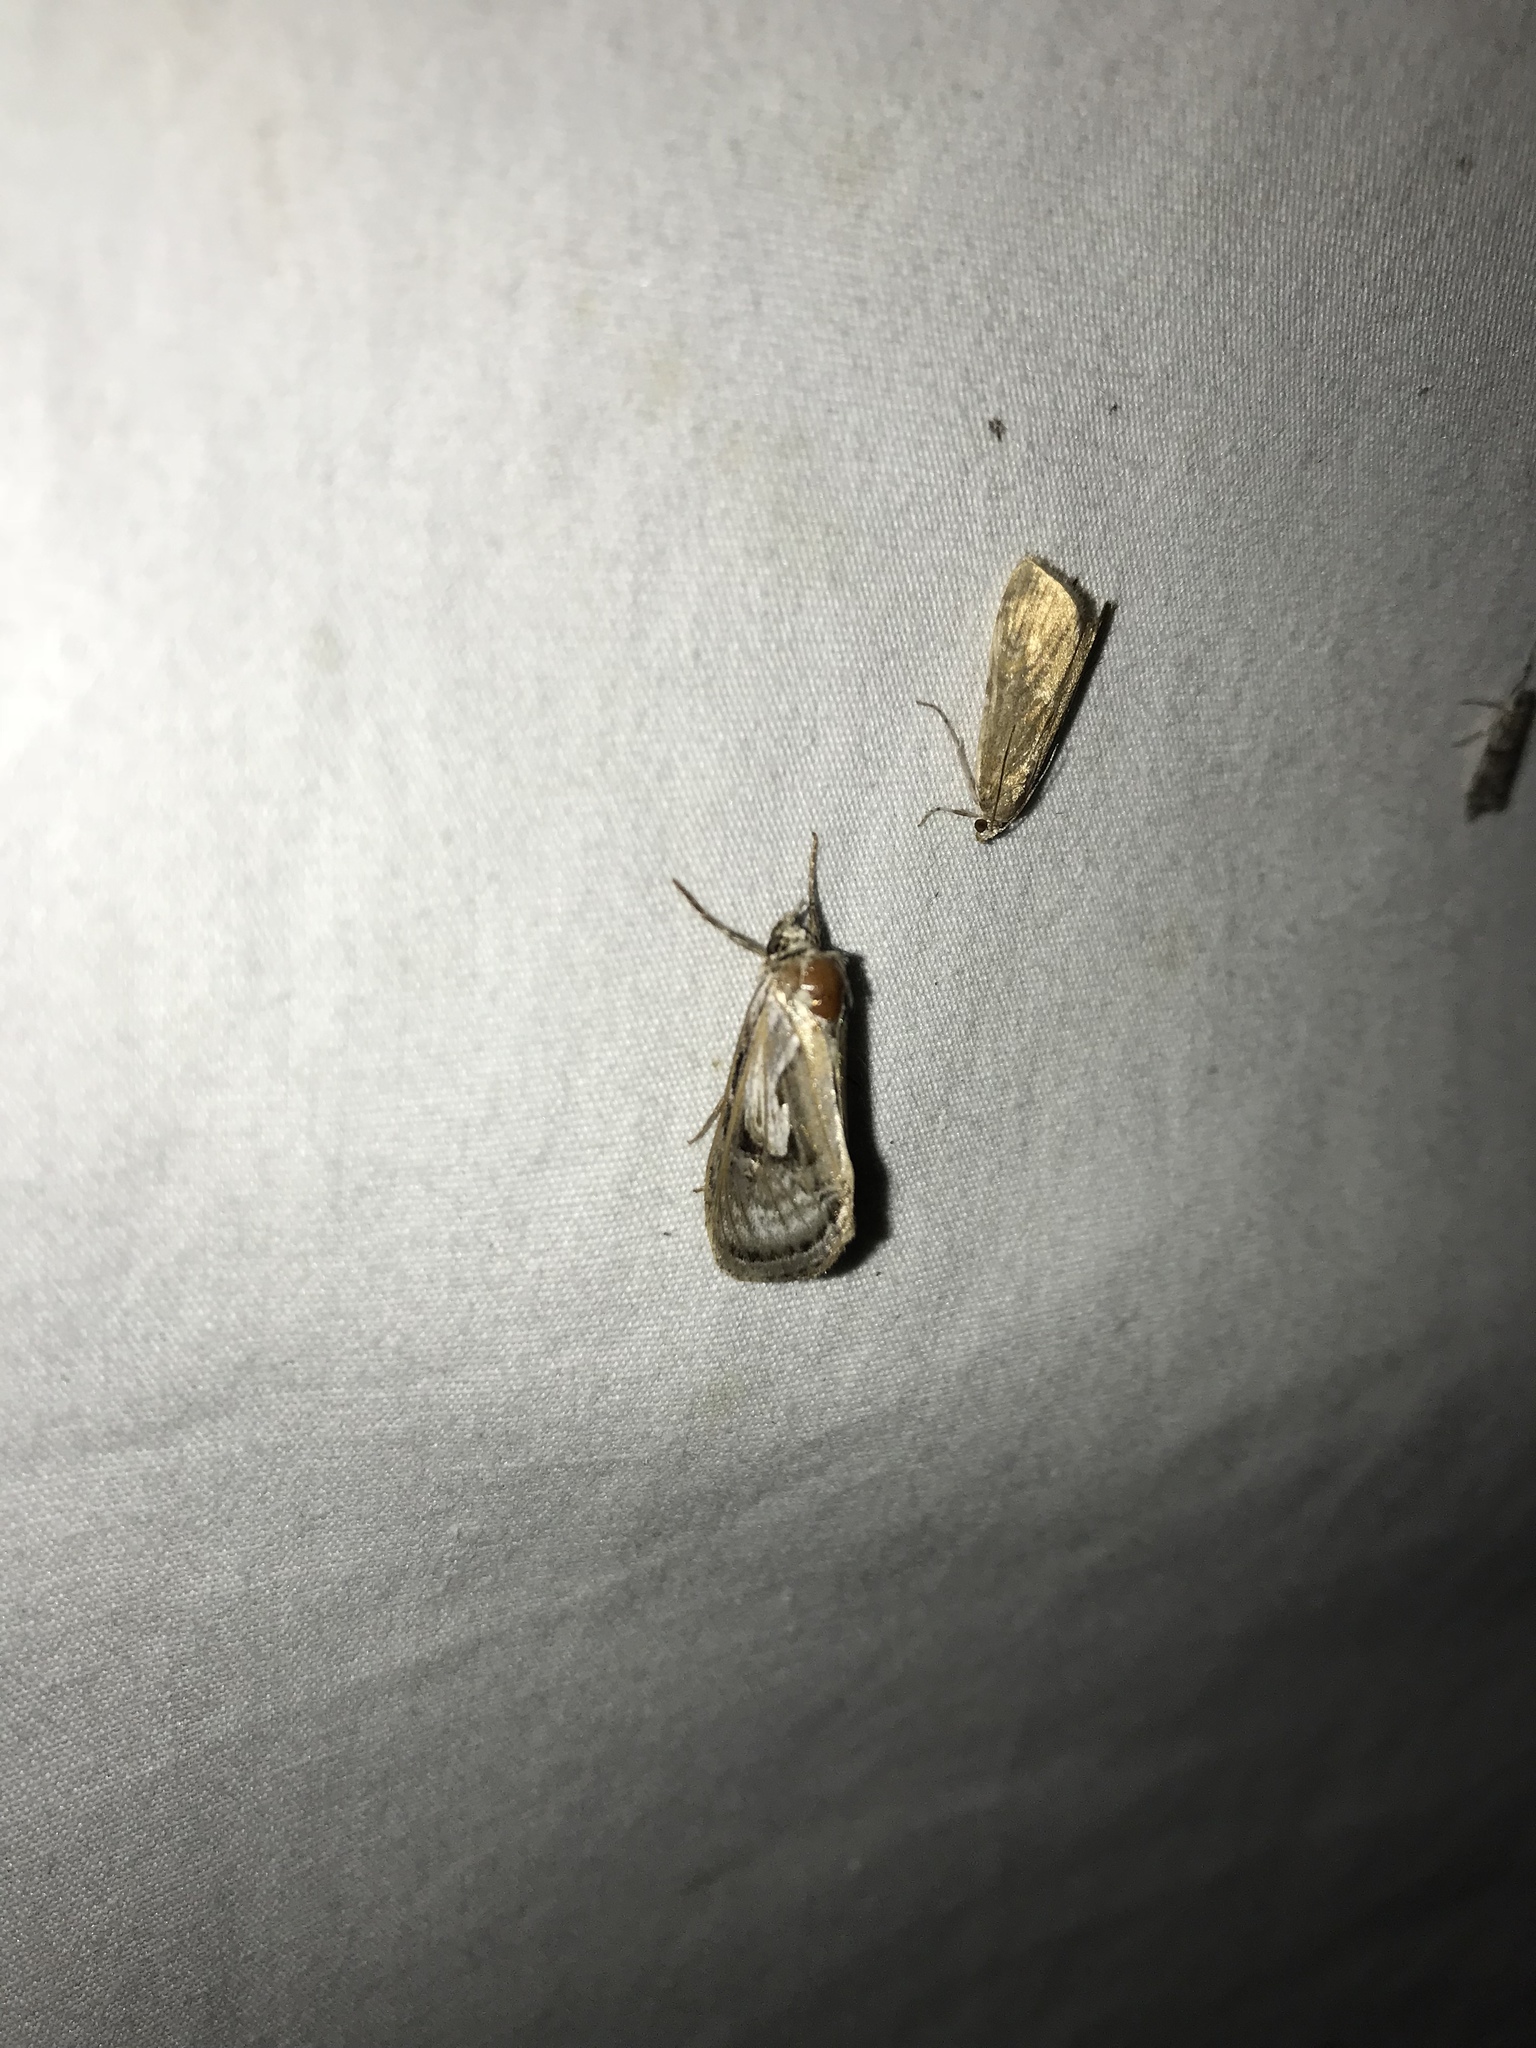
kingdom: Animalia
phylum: Arthropoda
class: Insecta
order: Lepidoptera
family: Noctuidae
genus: Chrysanympha
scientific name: Chrysanympha formosa
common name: Formosa looper moth
